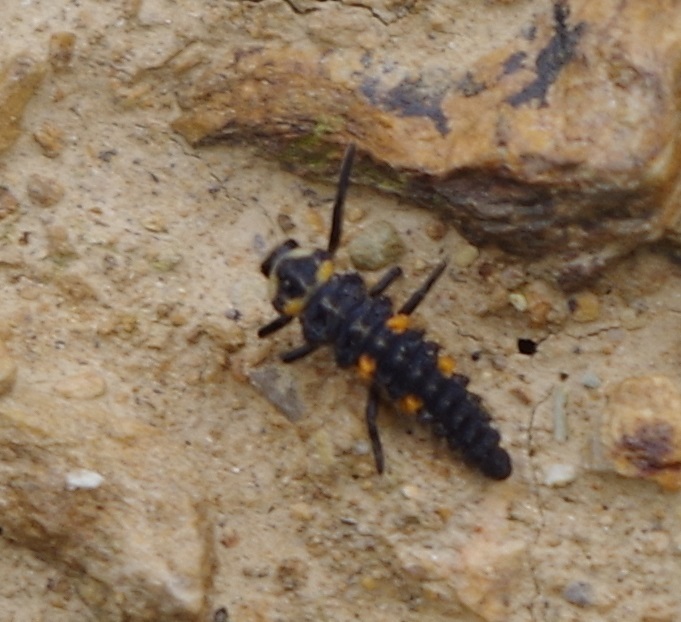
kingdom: Animalia
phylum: Arthropoda
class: Insecta
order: Coleoptera
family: Coccinellidae
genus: Coccinella
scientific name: Coccinella septempunctata
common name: Sevenspotted lady beetle
